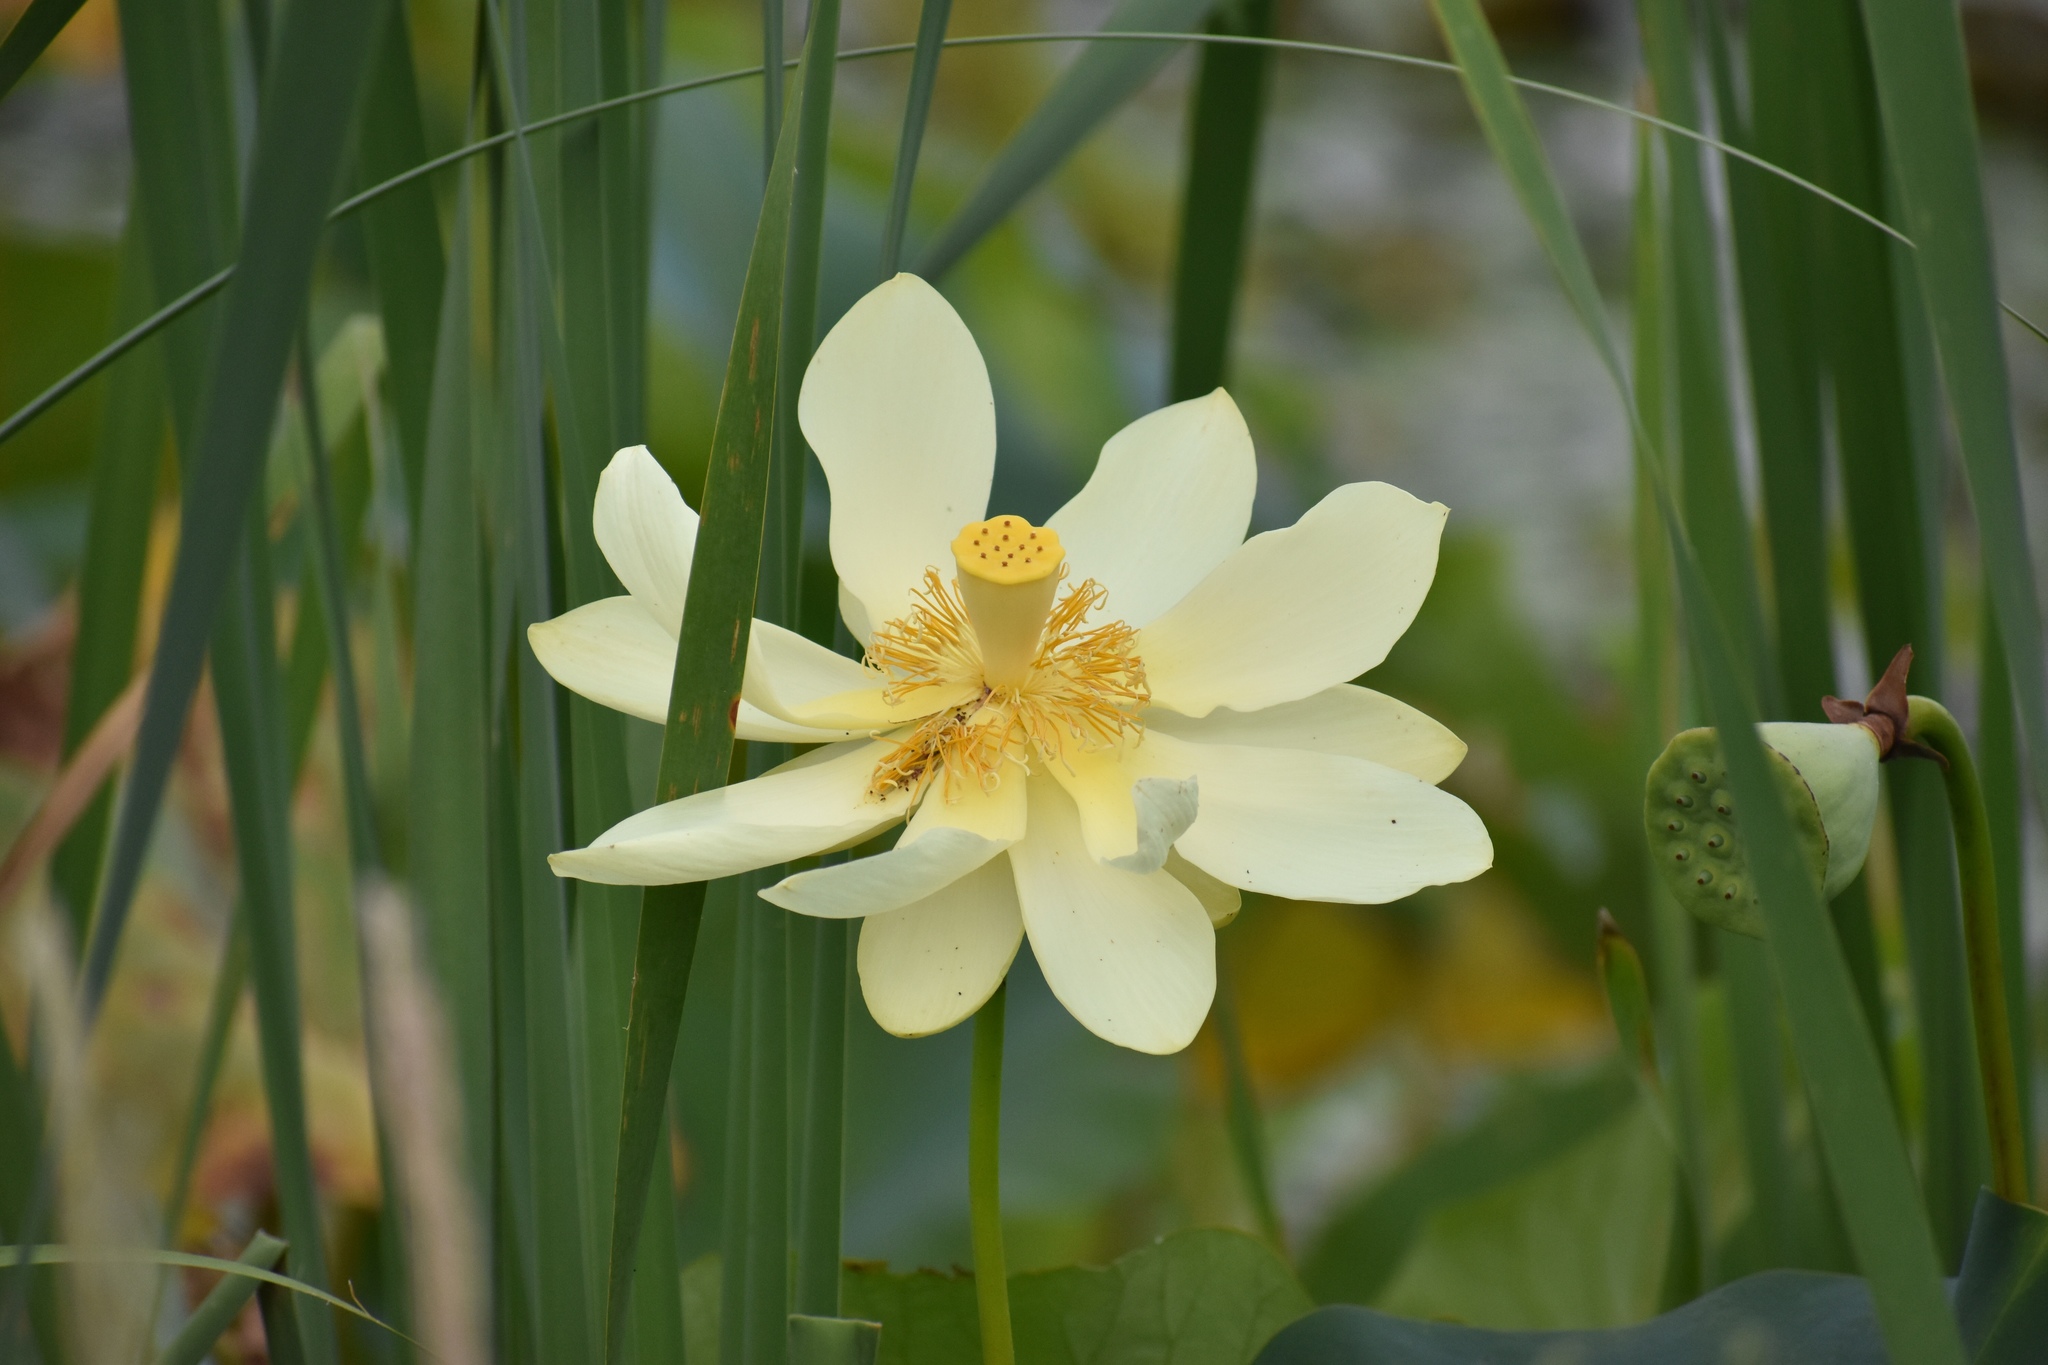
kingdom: Plantae
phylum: Tracheophyta
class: Magnoliopsida
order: Proteales
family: Nelumbonaceae
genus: Nelumbo
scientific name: Nelumbo lutea
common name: American lotus
